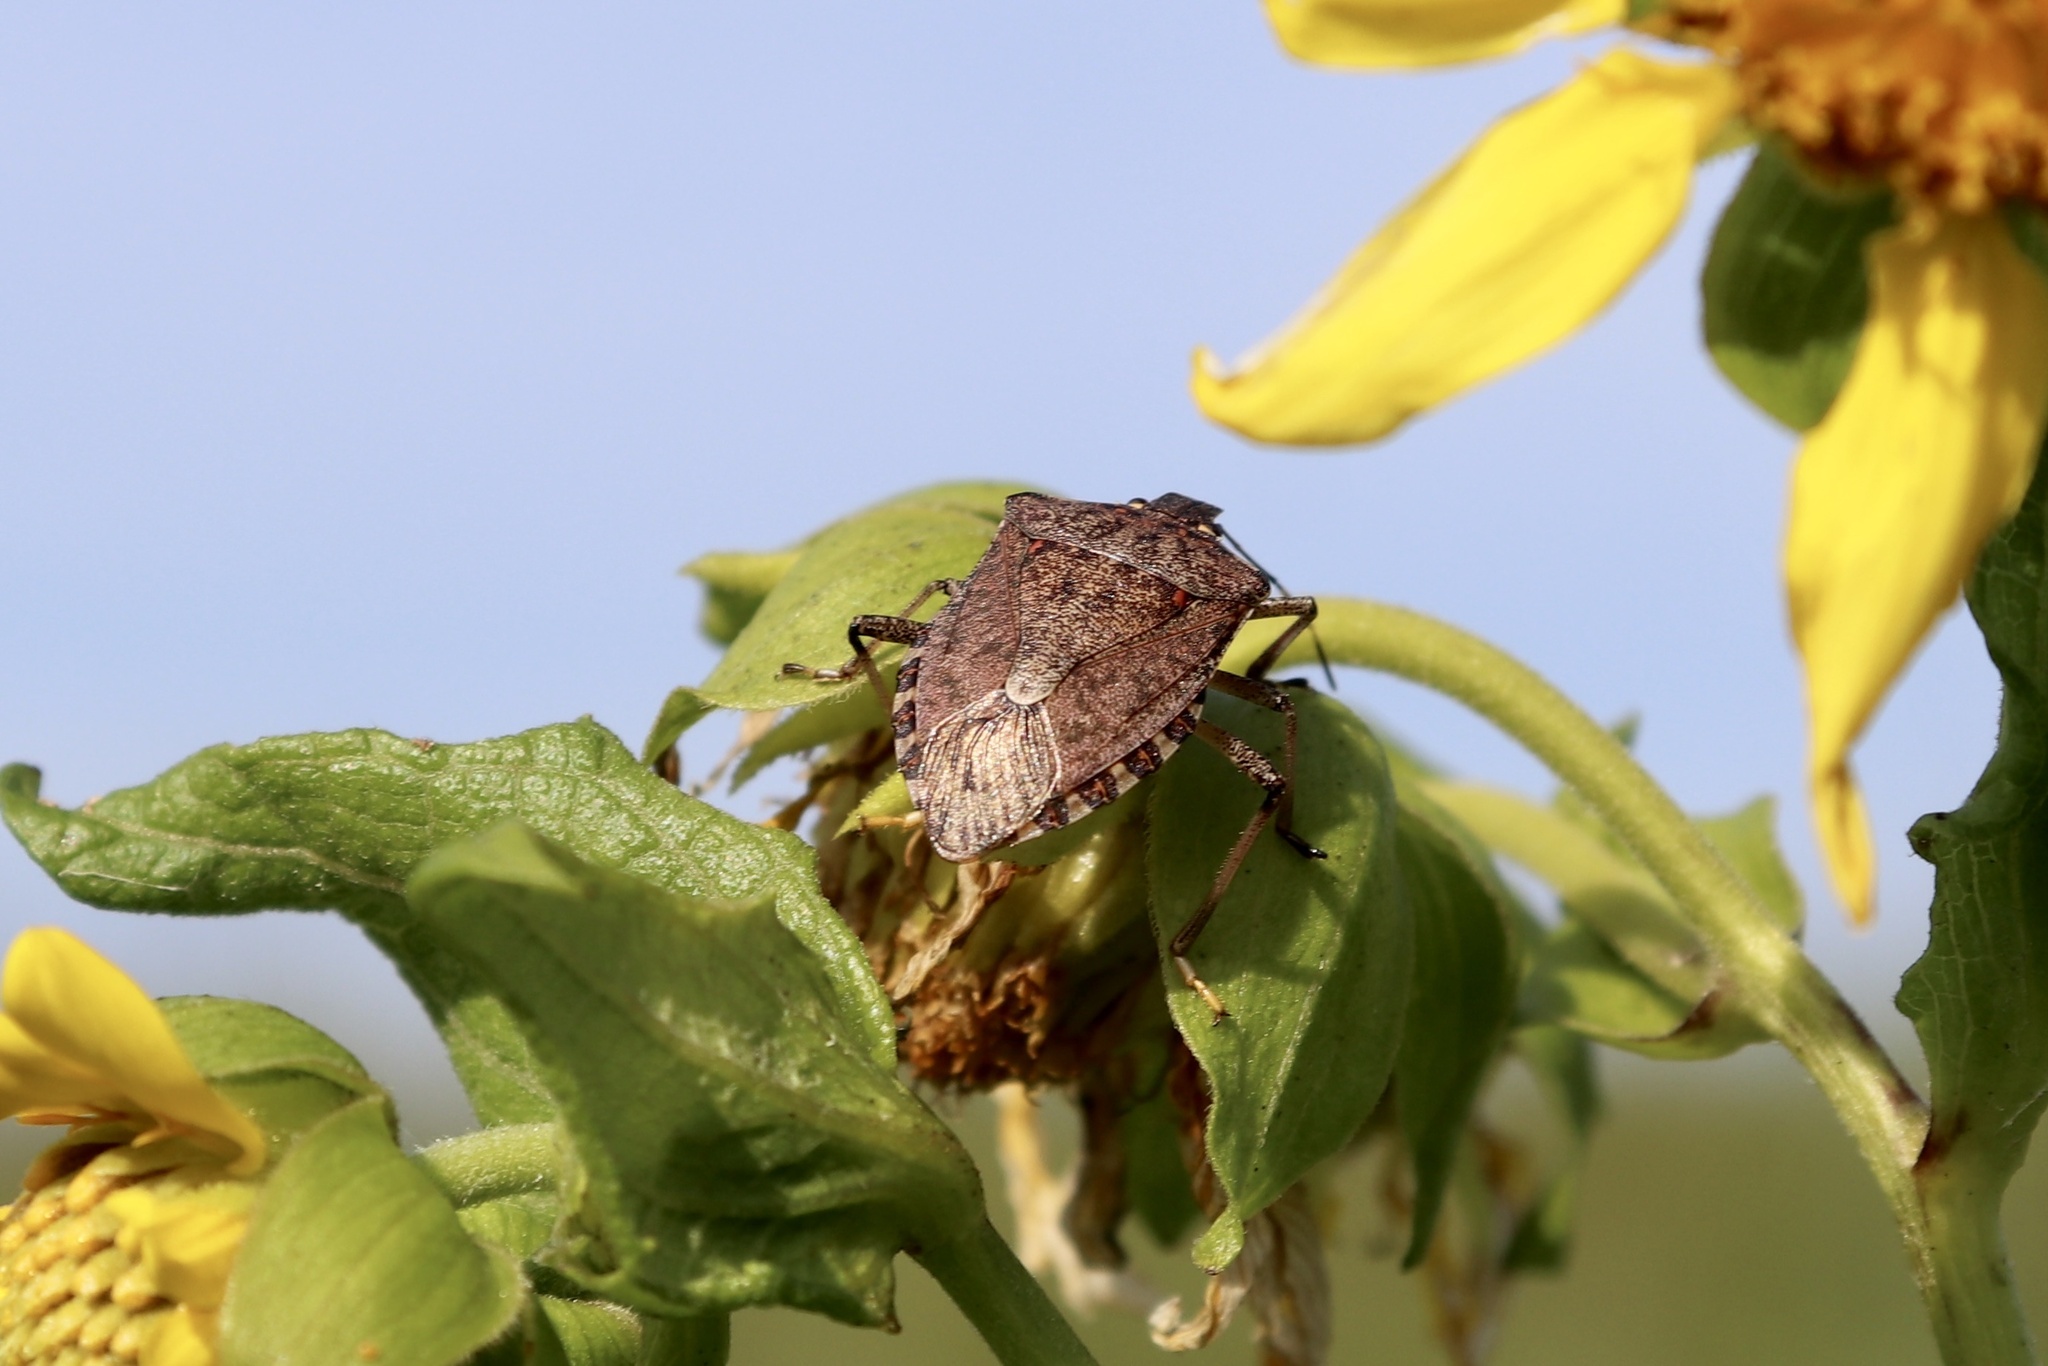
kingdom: Animalia
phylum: Arthropoda
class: Insecta
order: Hemiptera
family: Pentatomidae
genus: Halyomorpha
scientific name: Halyomorpha halys
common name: Brown marmorated stink bug
